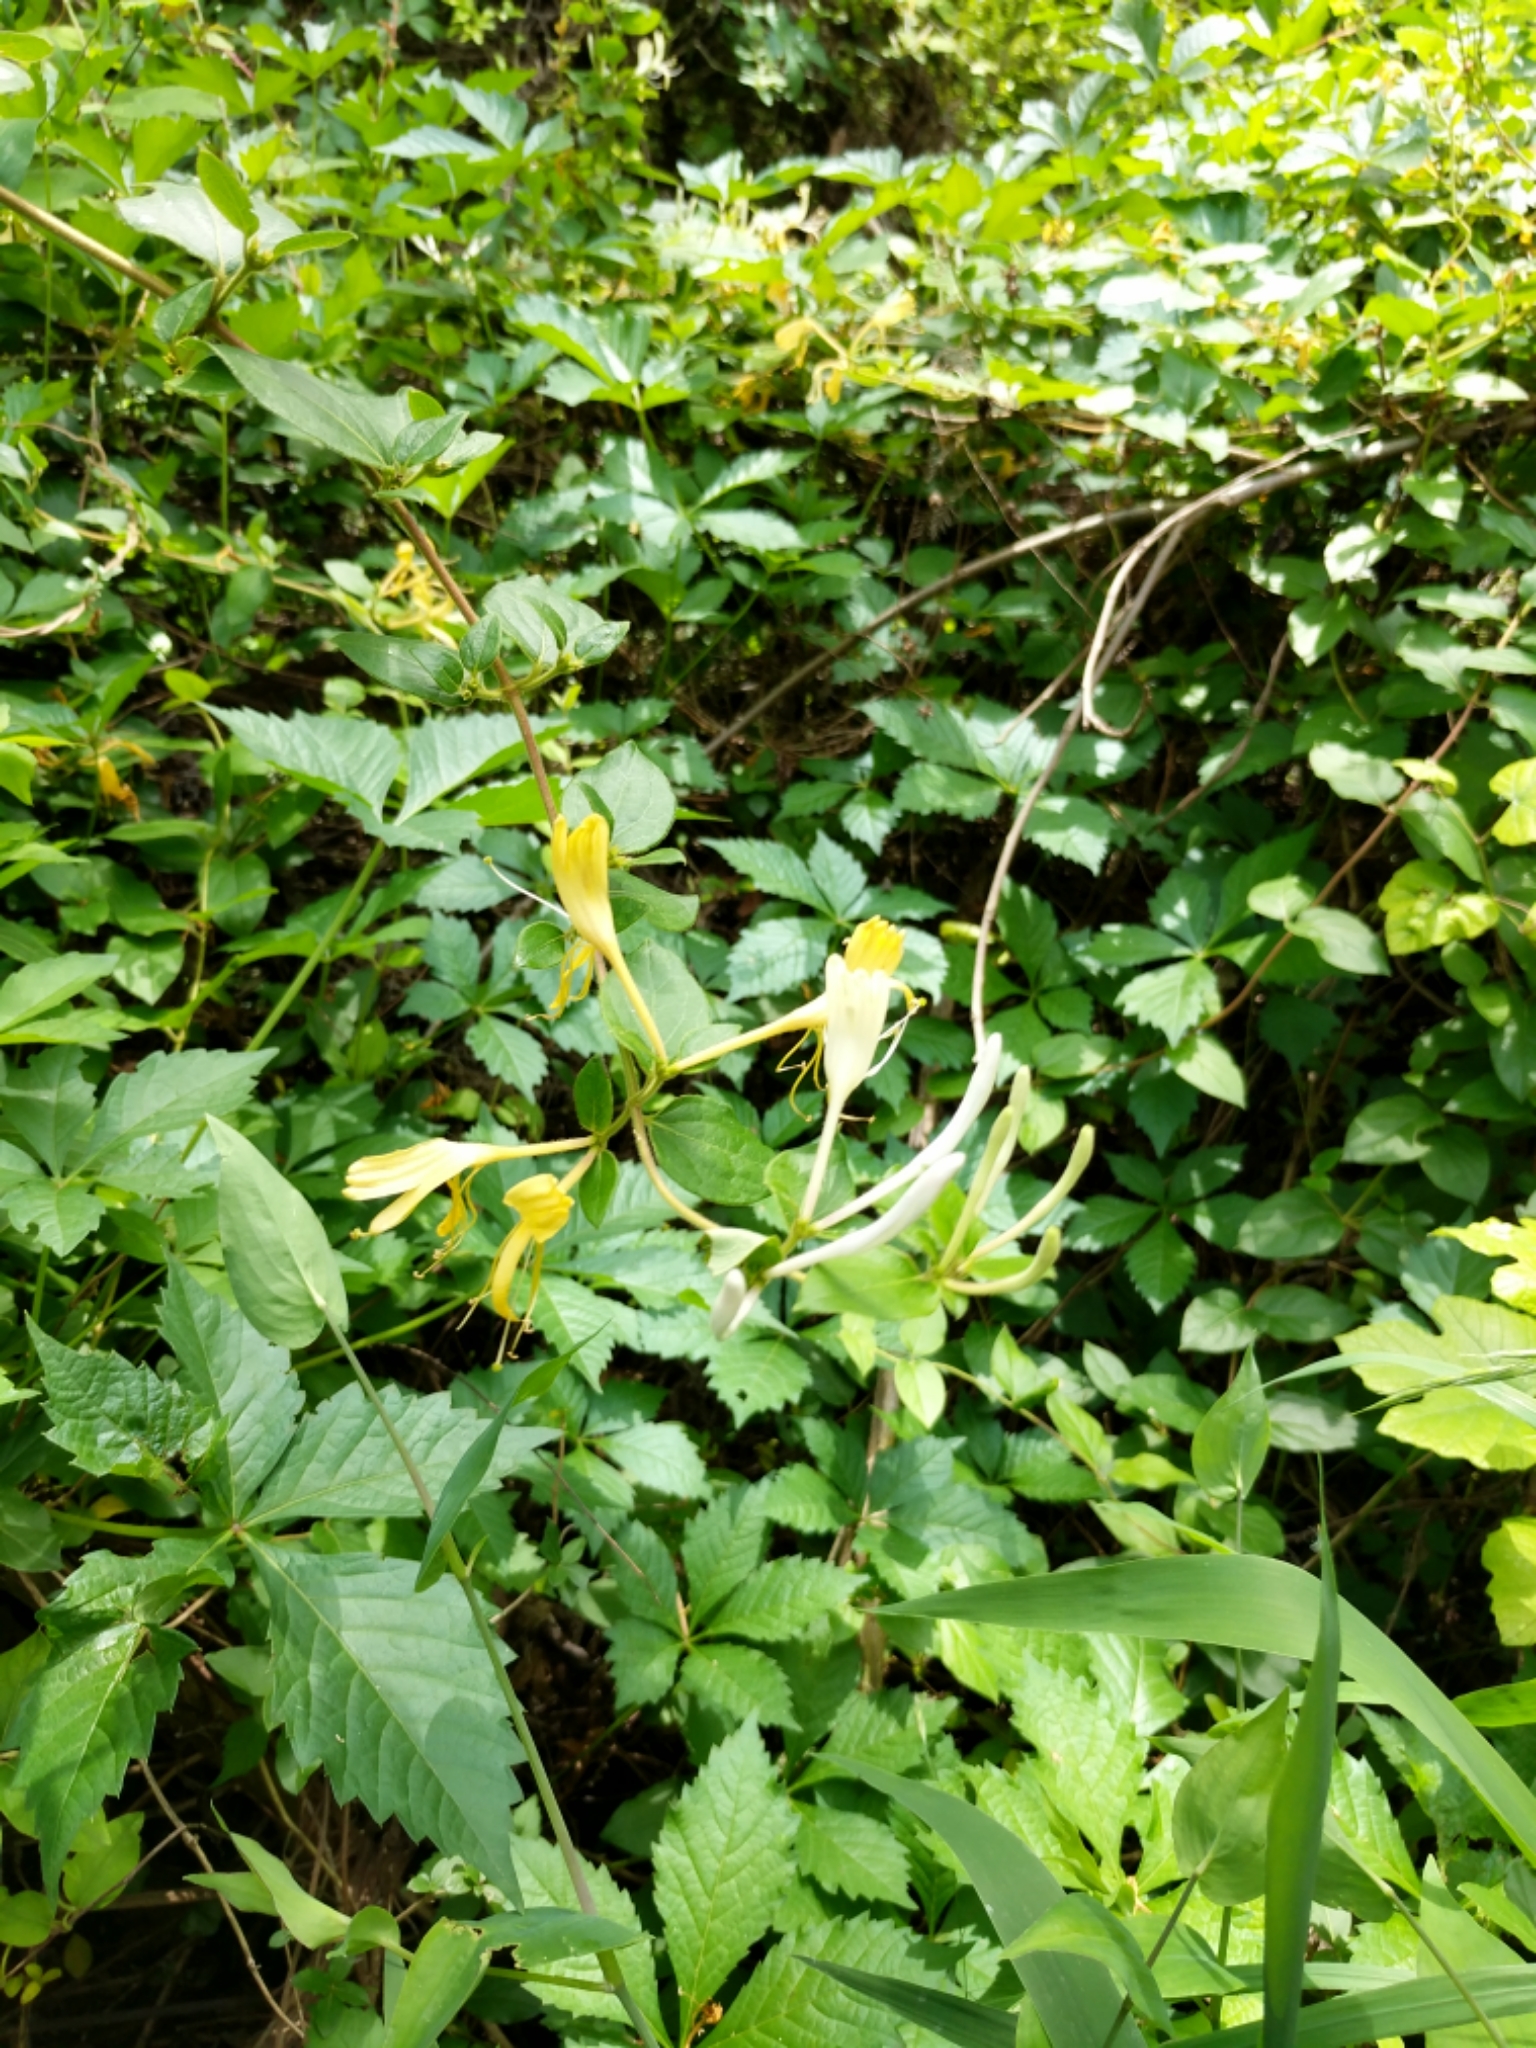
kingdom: Plantae
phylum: Tracheophyta
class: Magnoliopsida
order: Dipsacales
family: Caprifoliaceae
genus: Lonicera
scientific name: Lonicera japonica
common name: Japanese honeysuckle
